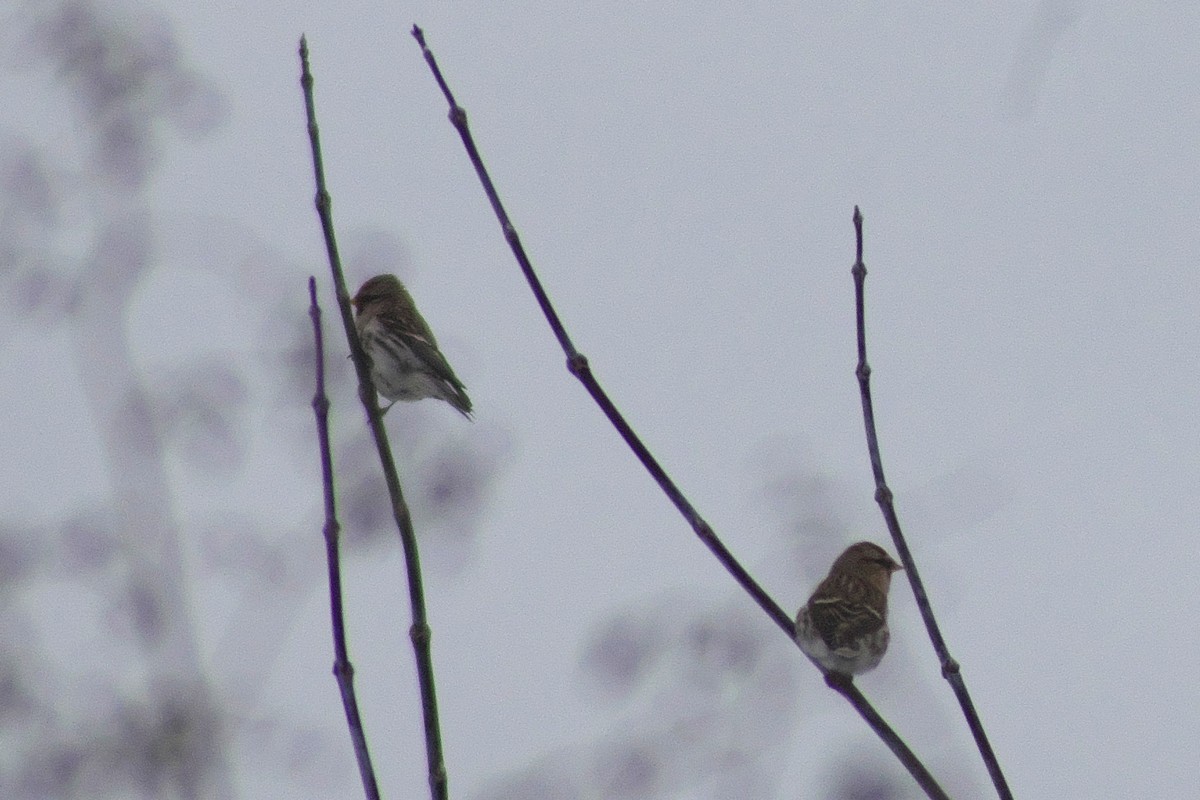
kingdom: Animalia
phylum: Chordata
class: Aves
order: Passeriformes
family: Fringillidae
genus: Acanthis
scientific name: Acanthis flammea
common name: Common redpoll
